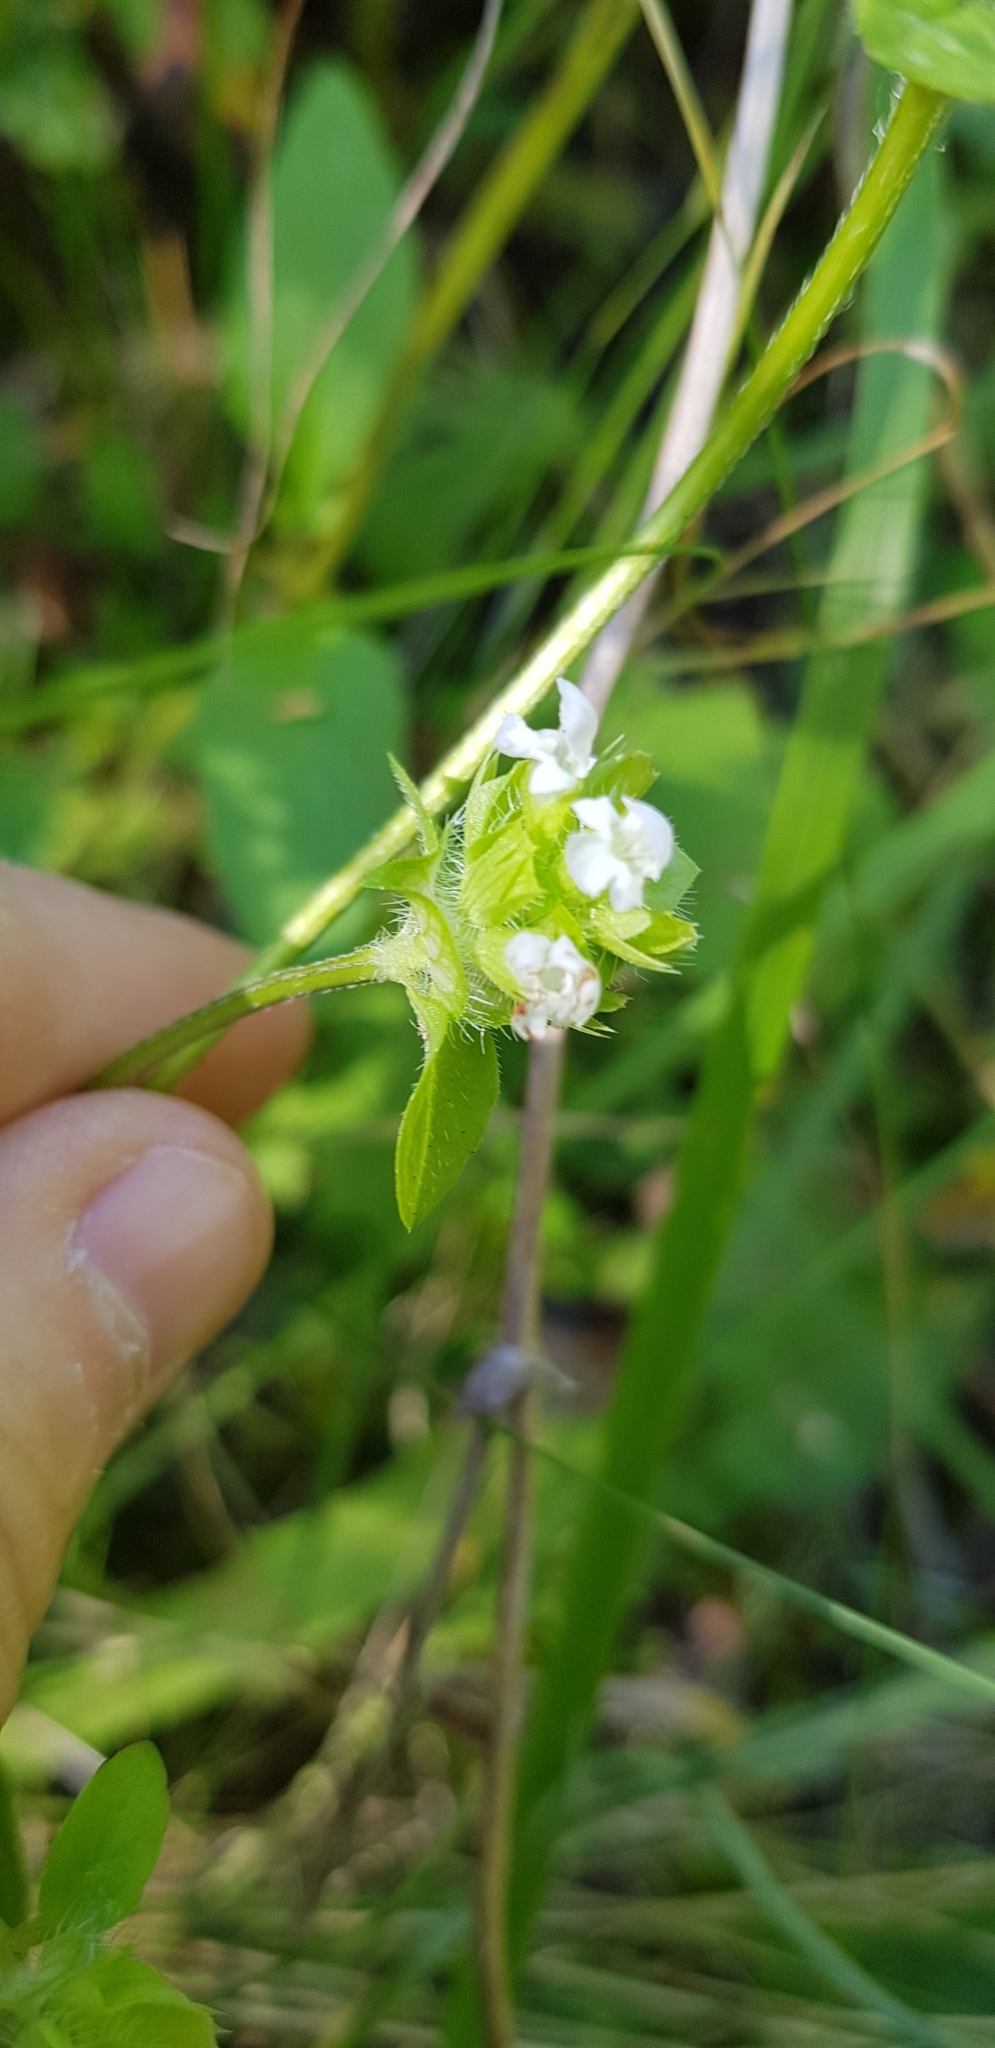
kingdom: Plantae
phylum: Tracheophyta
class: Magnoliopsida
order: Lamiales
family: Lamiaceae
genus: Prunella
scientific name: Prunella vulgaris
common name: Heal-all
